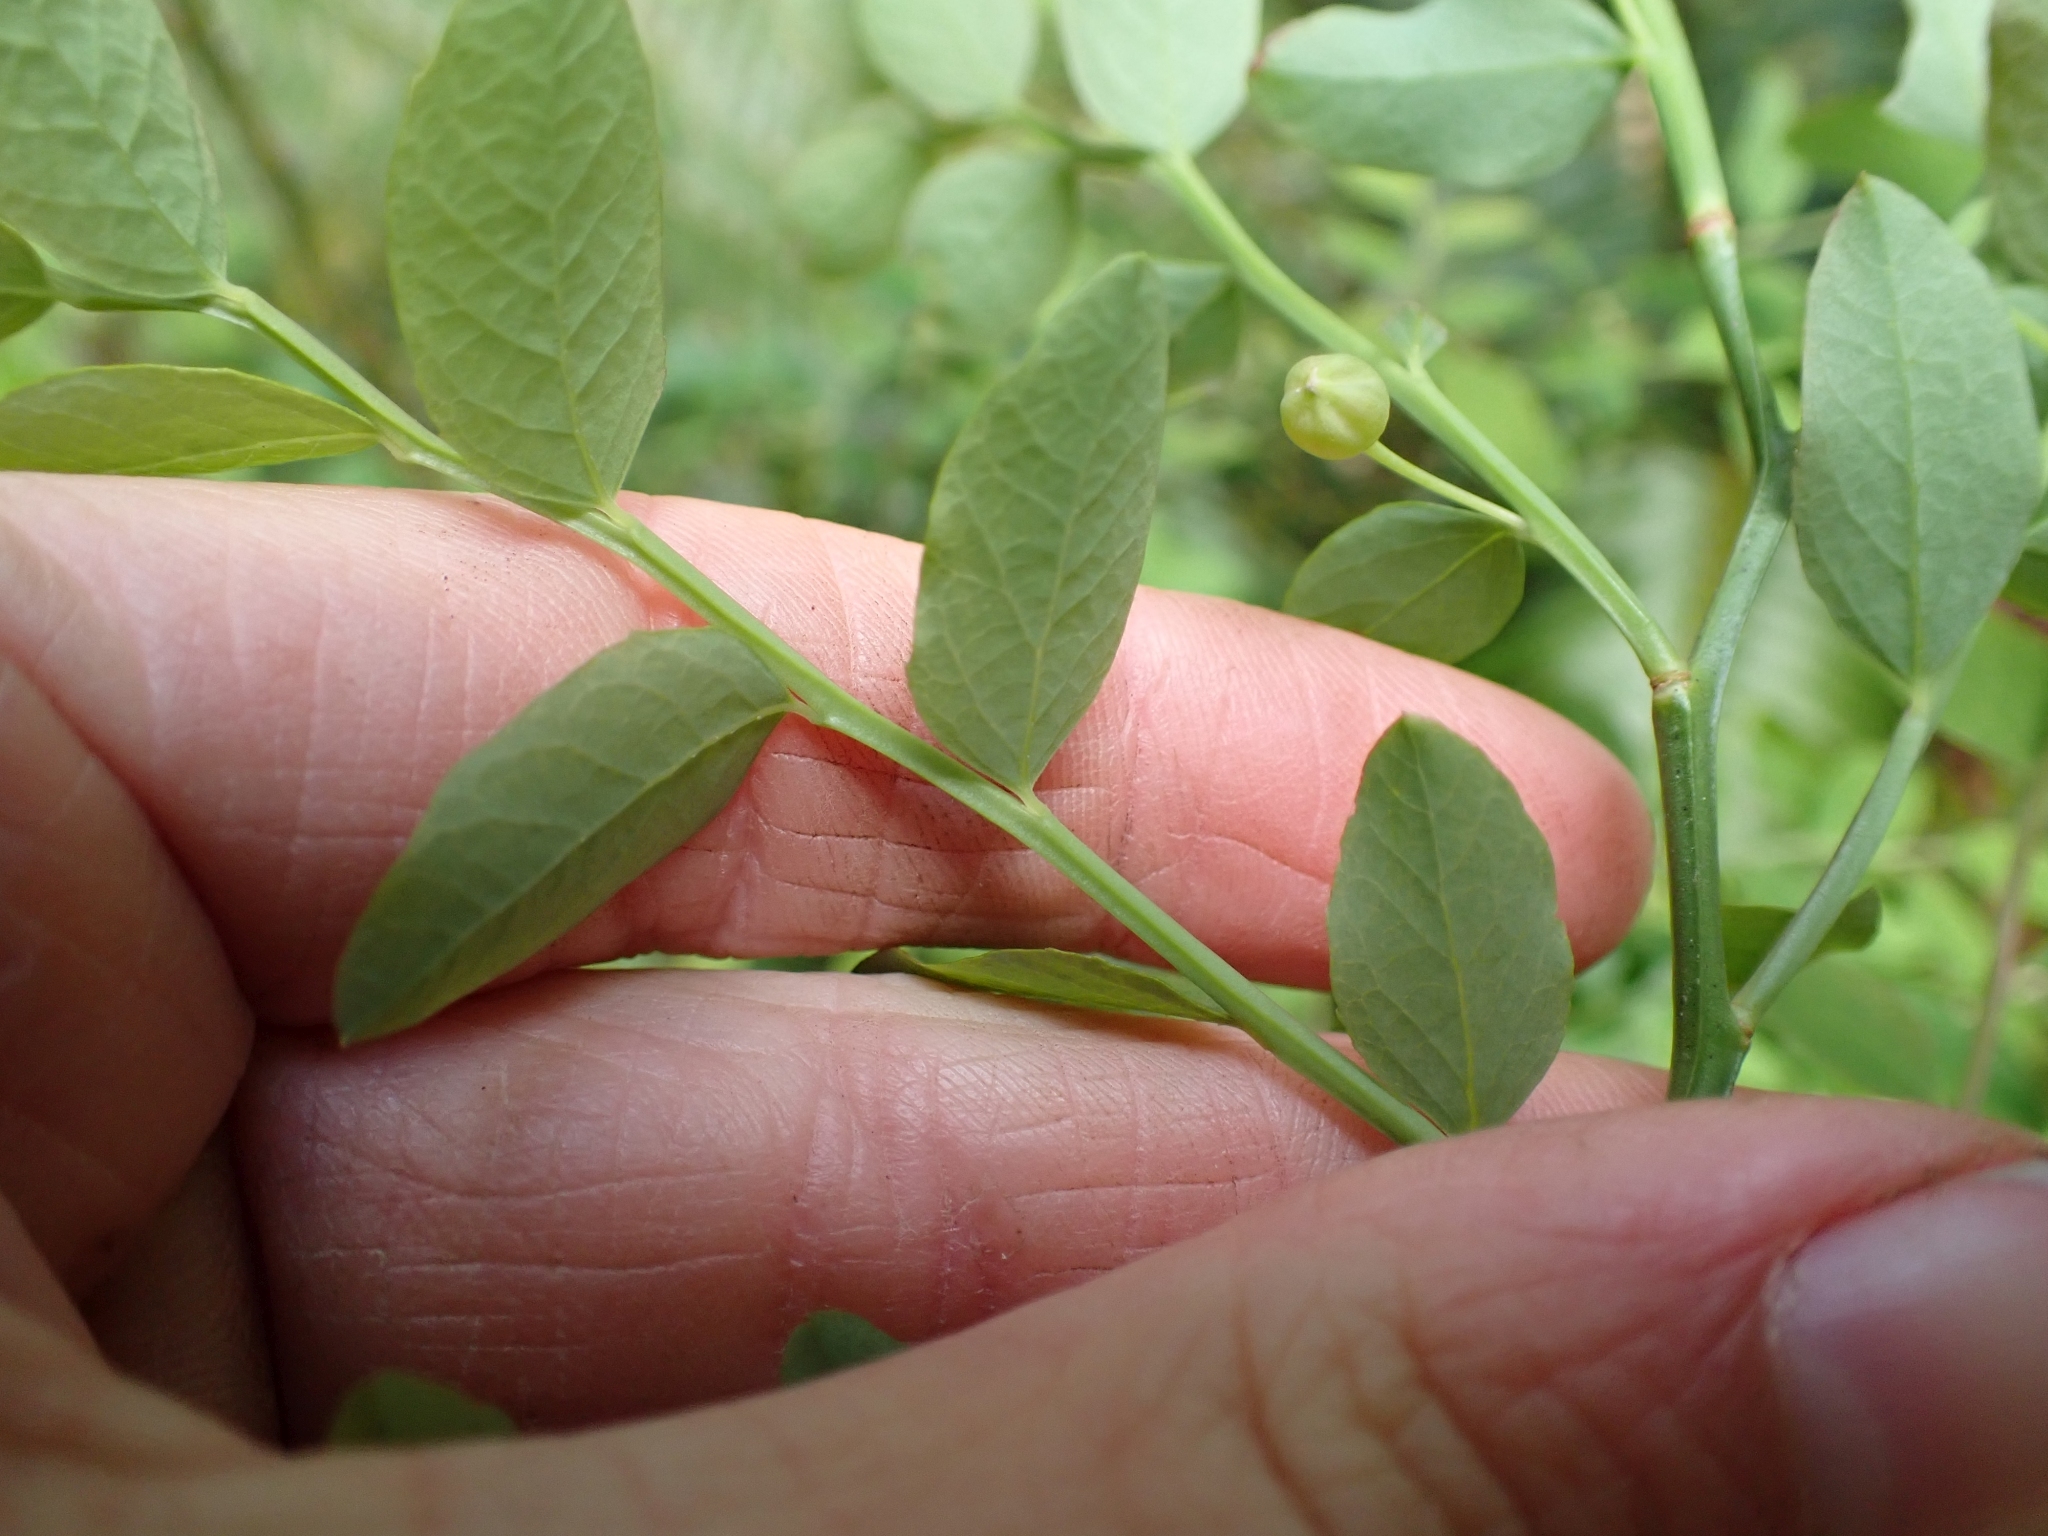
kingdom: Plantae
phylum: Tracheophyta
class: Magnoliopsida
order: Ericales
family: Ericaceae
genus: Vaccinium
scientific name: Vaccinium parvifolium
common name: Red-huckleberry
